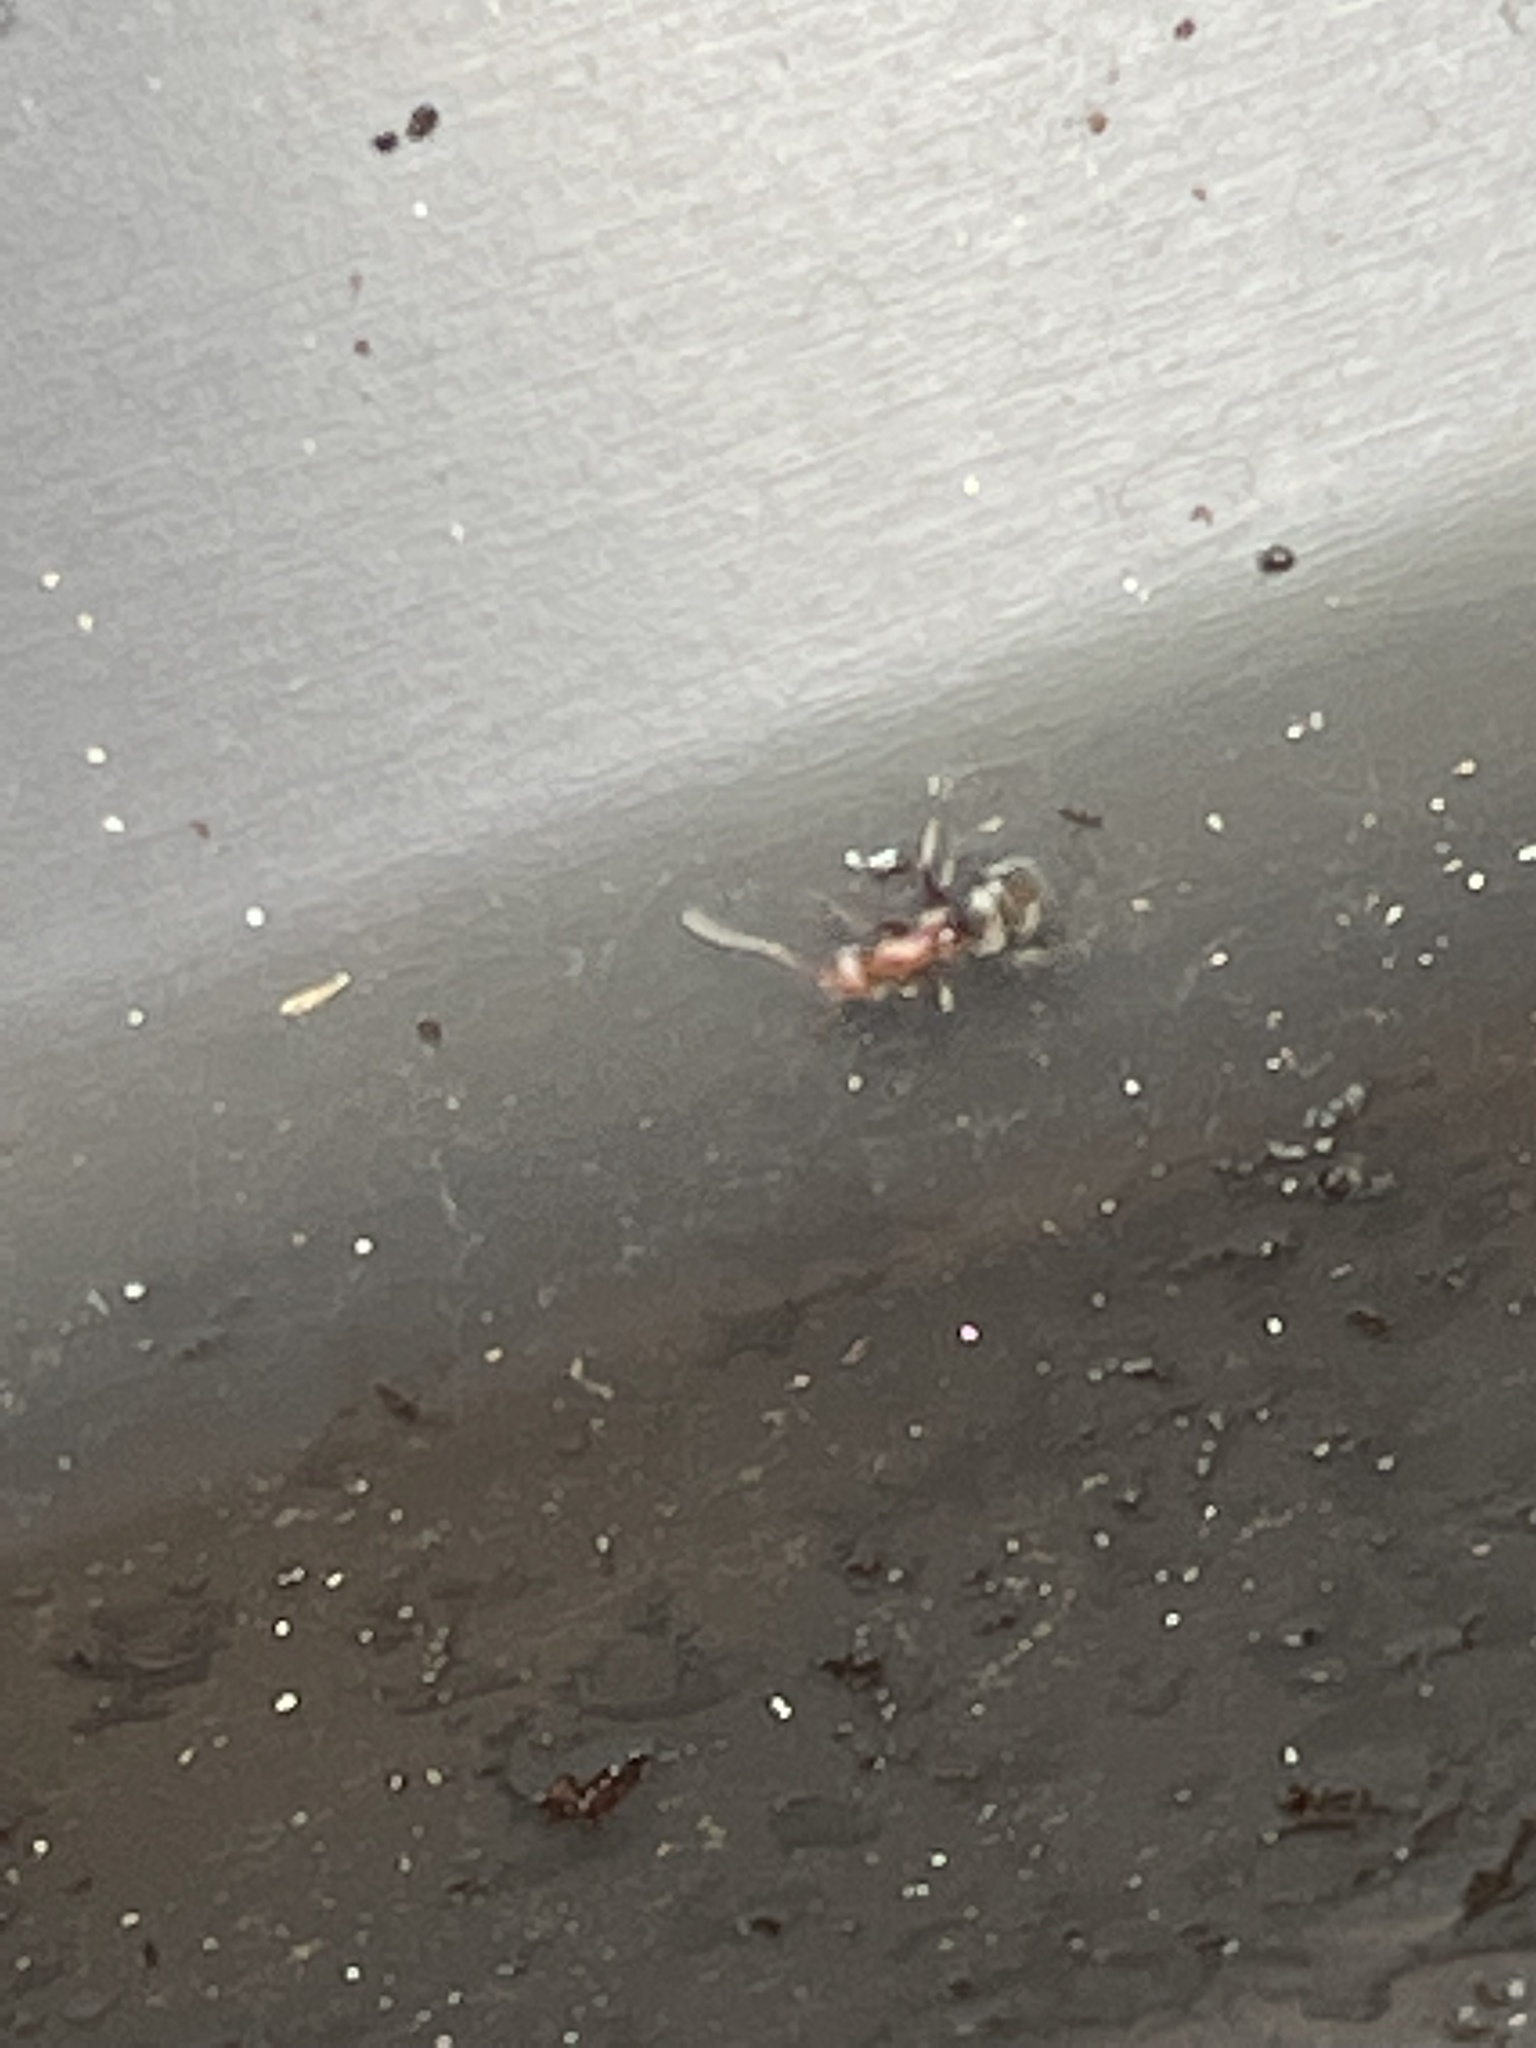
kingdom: Animalia
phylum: Arthropoda
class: Insecta
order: Hymenoptera
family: Formicidae
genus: Camponotus
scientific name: Camponotus planatus
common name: Compact carpenter ant
